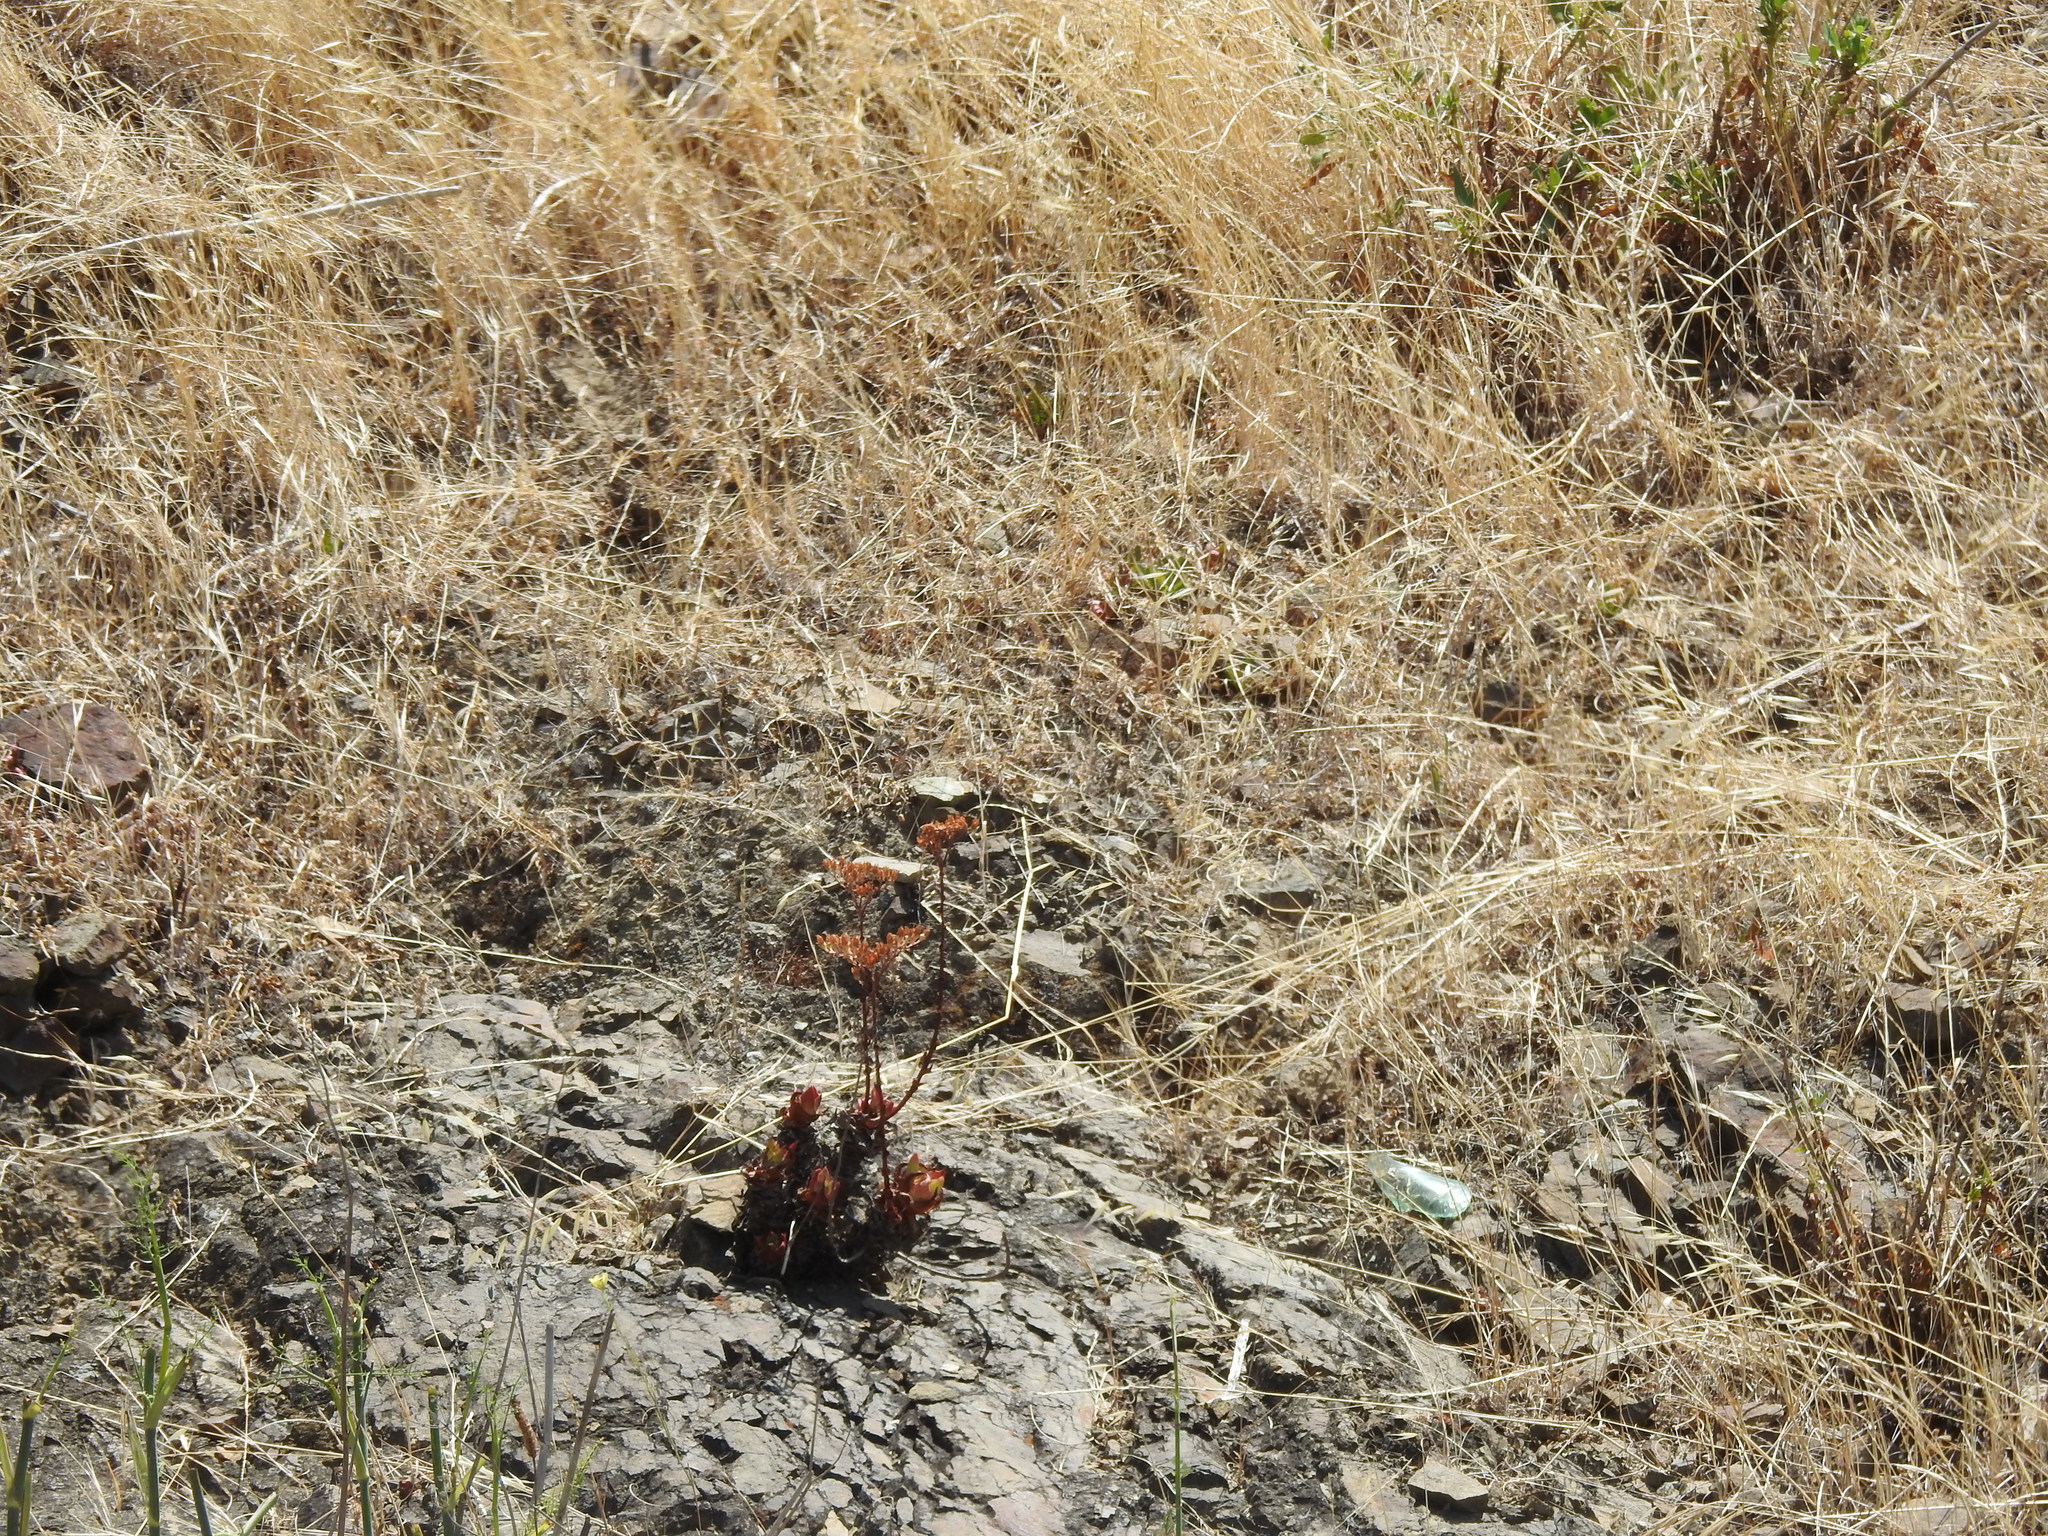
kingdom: Plantae
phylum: Tracheophyta
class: Magnoliopsida
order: Saxifragales
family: Crassulaceae
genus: Dudleya
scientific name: Dudleya farinosa
